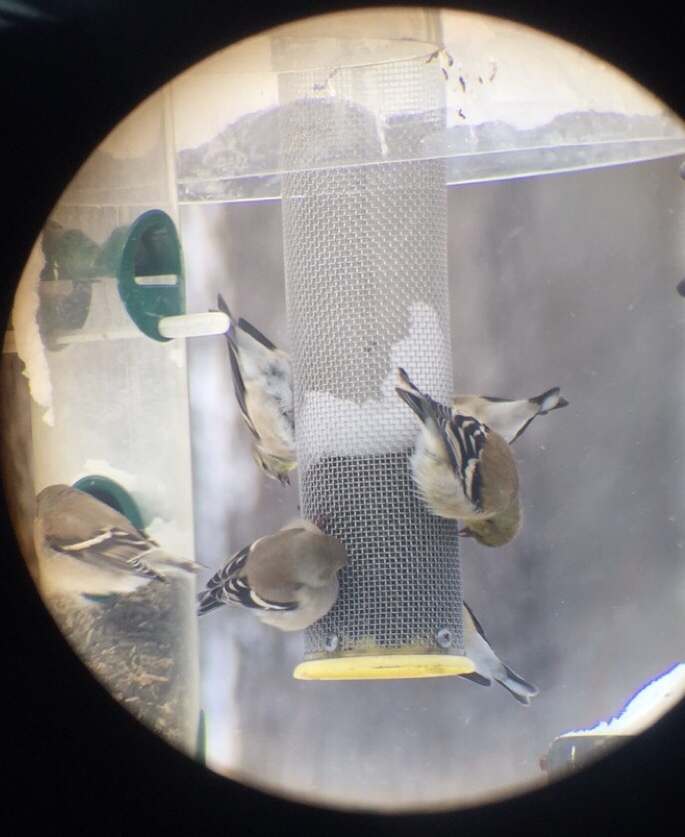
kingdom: Animalia
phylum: Chordata
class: Aves
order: Passeriformes
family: Fringillidae
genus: Spinus
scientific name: Spinus tristis
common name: American goldfinch
